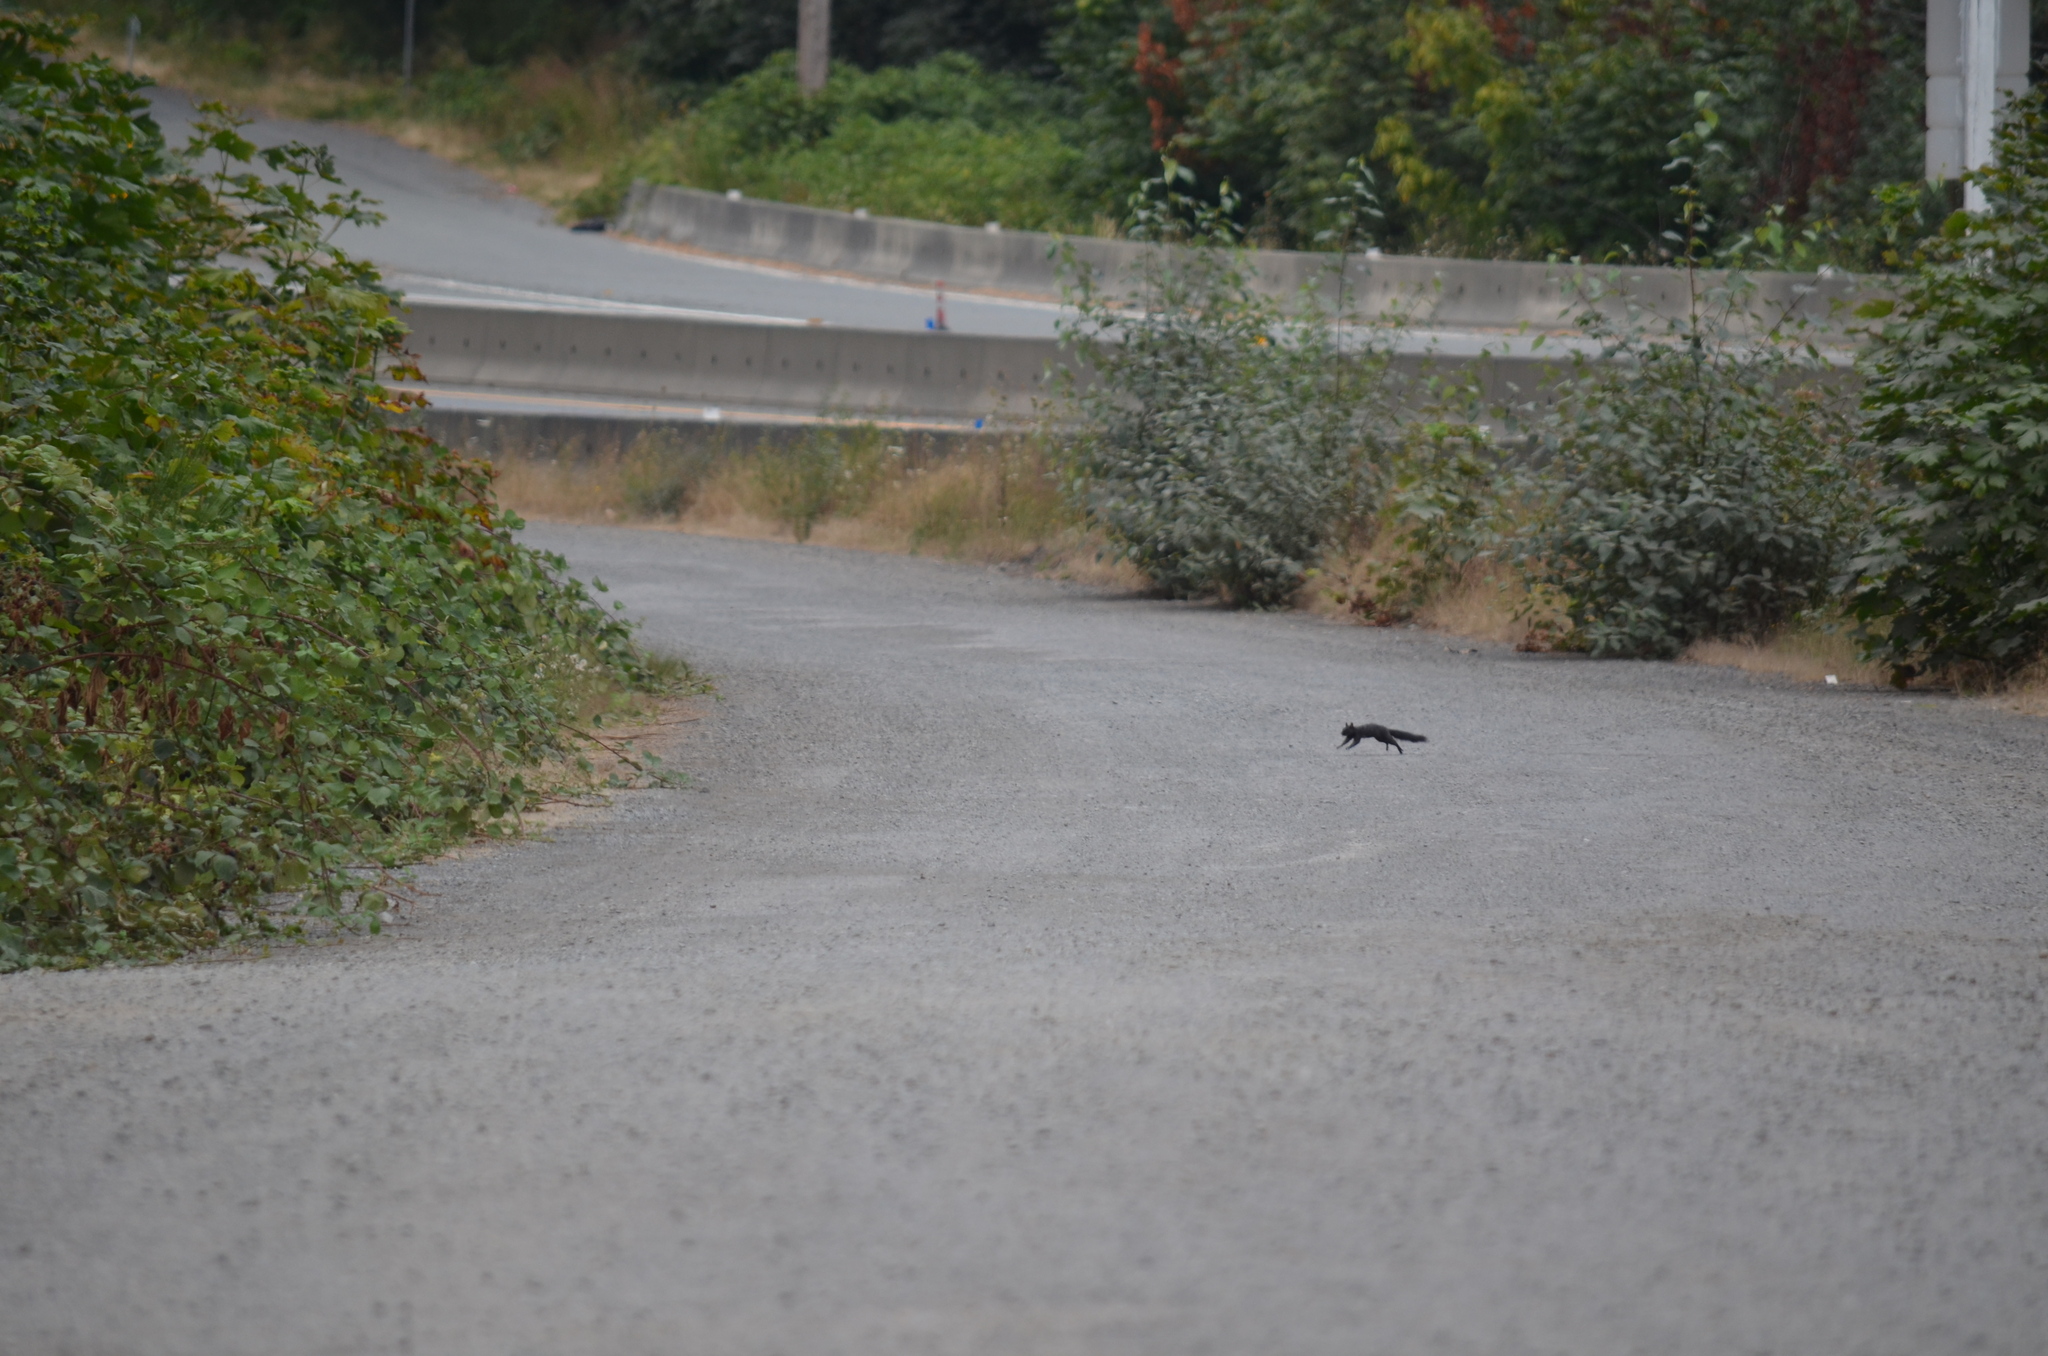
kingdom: Animalia
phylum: Chordata
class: Mammalia
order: Rodentia
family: Sciuridae
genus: Sciurus
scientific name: Sciurus carolinensis
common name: Eastern gray squirrel
